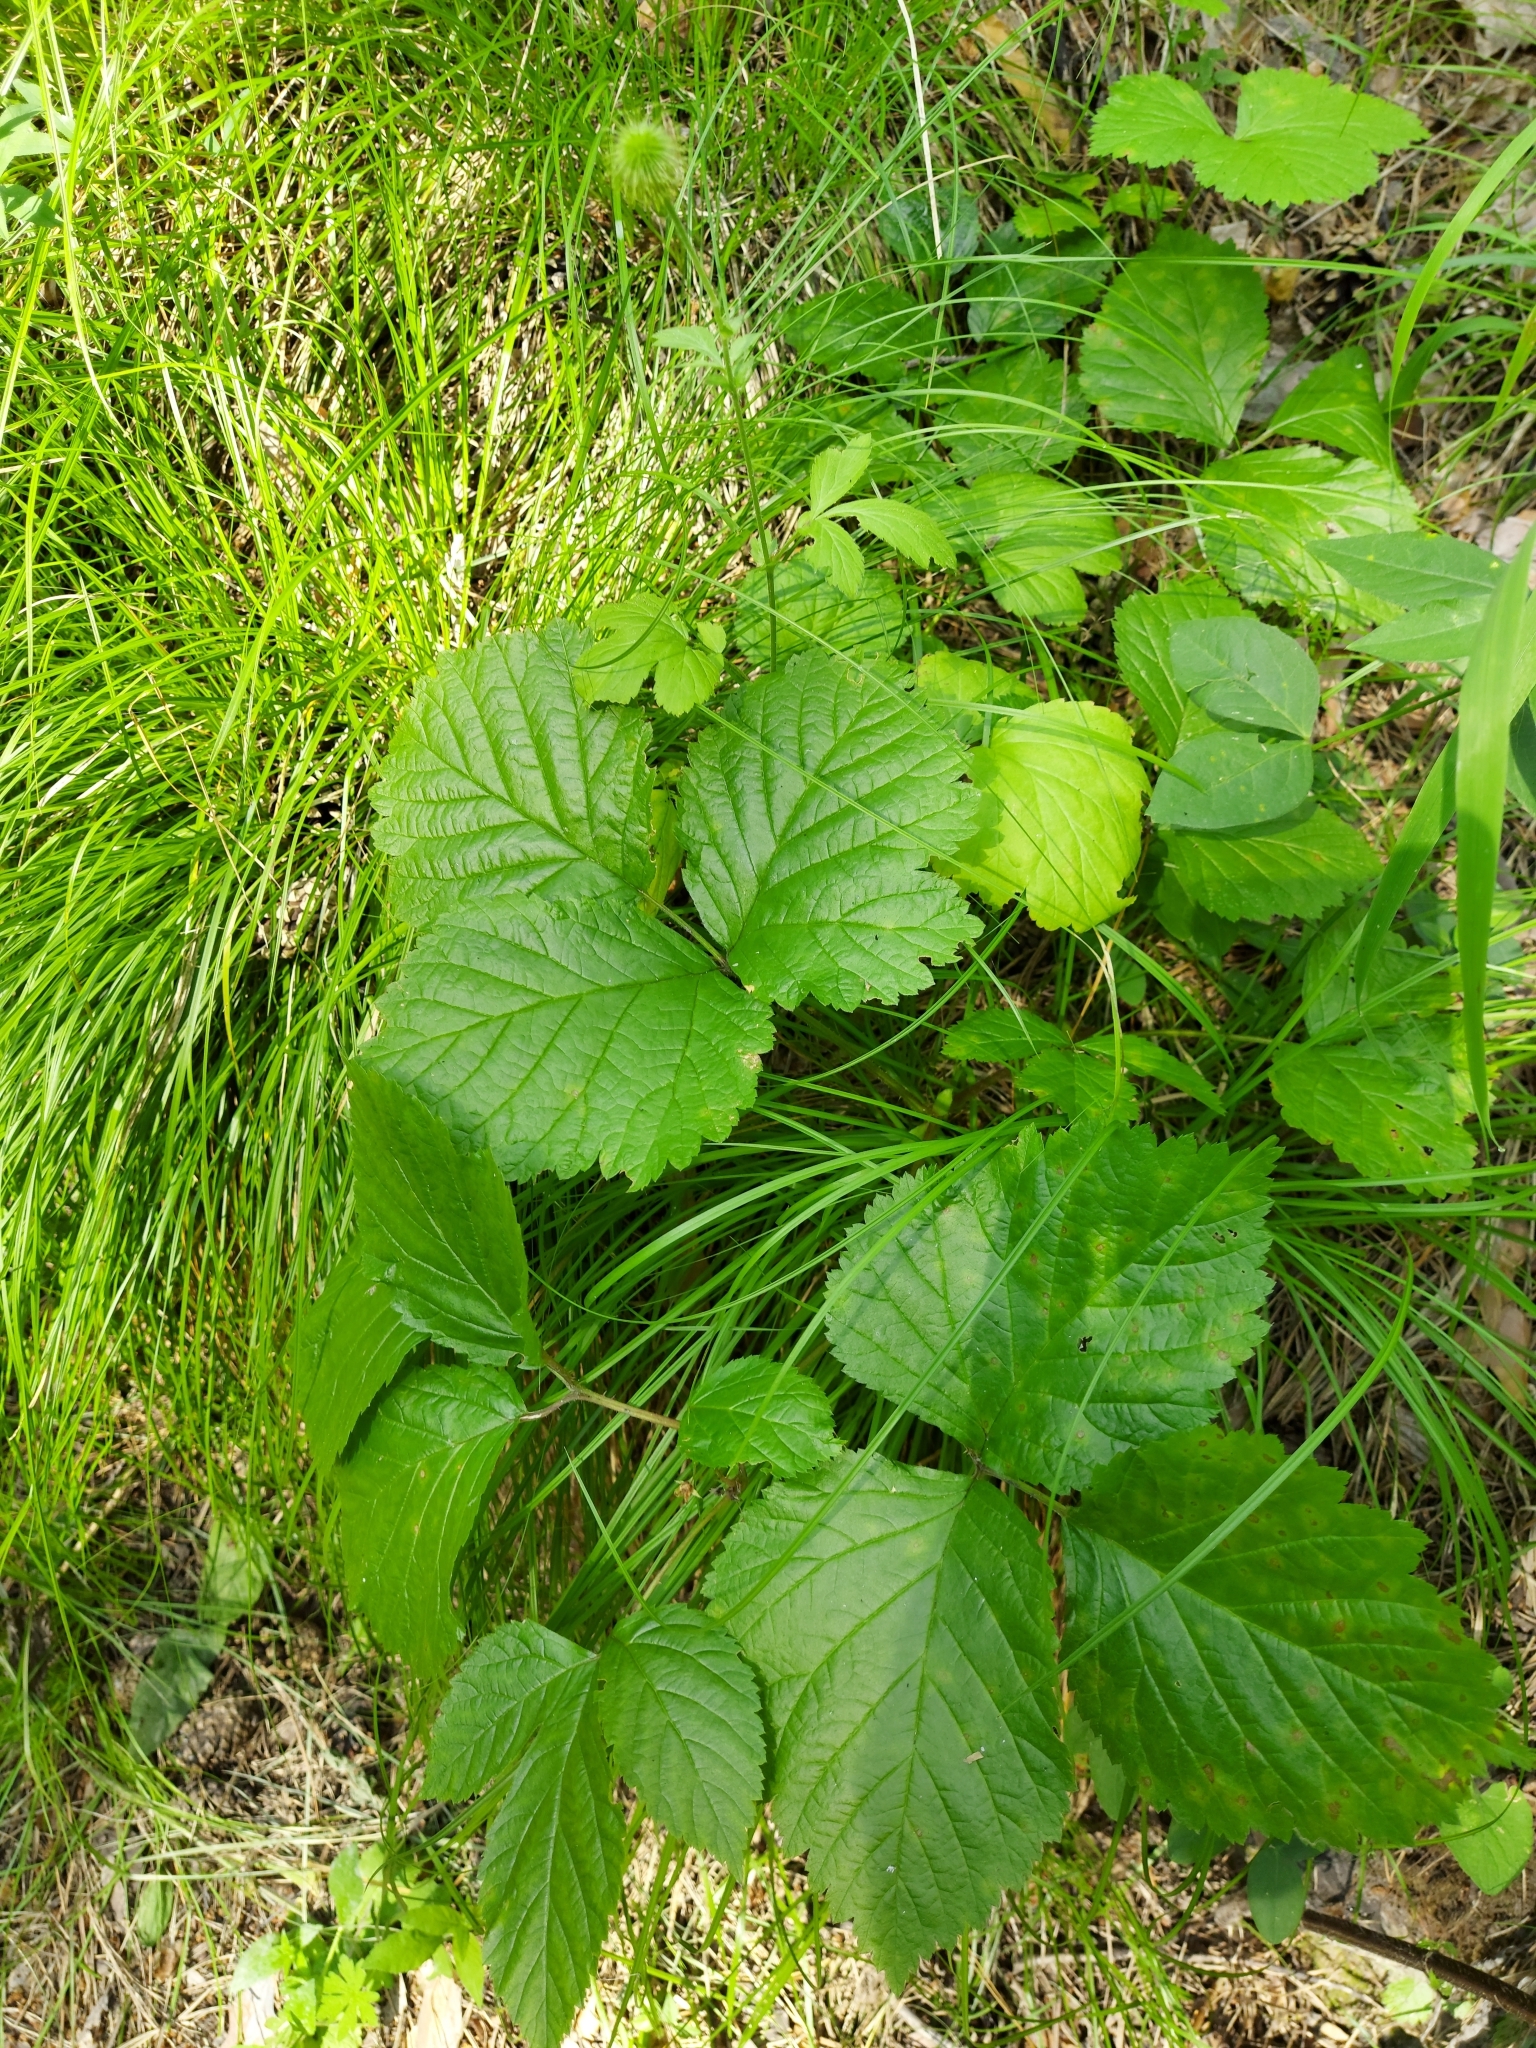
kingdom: Plantae
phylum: Tracheophyta
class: Magnoliopsida
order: Rosales
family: Rosaceae
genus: Rubus
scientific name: Rubus saxatilis
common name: Stone bramble
